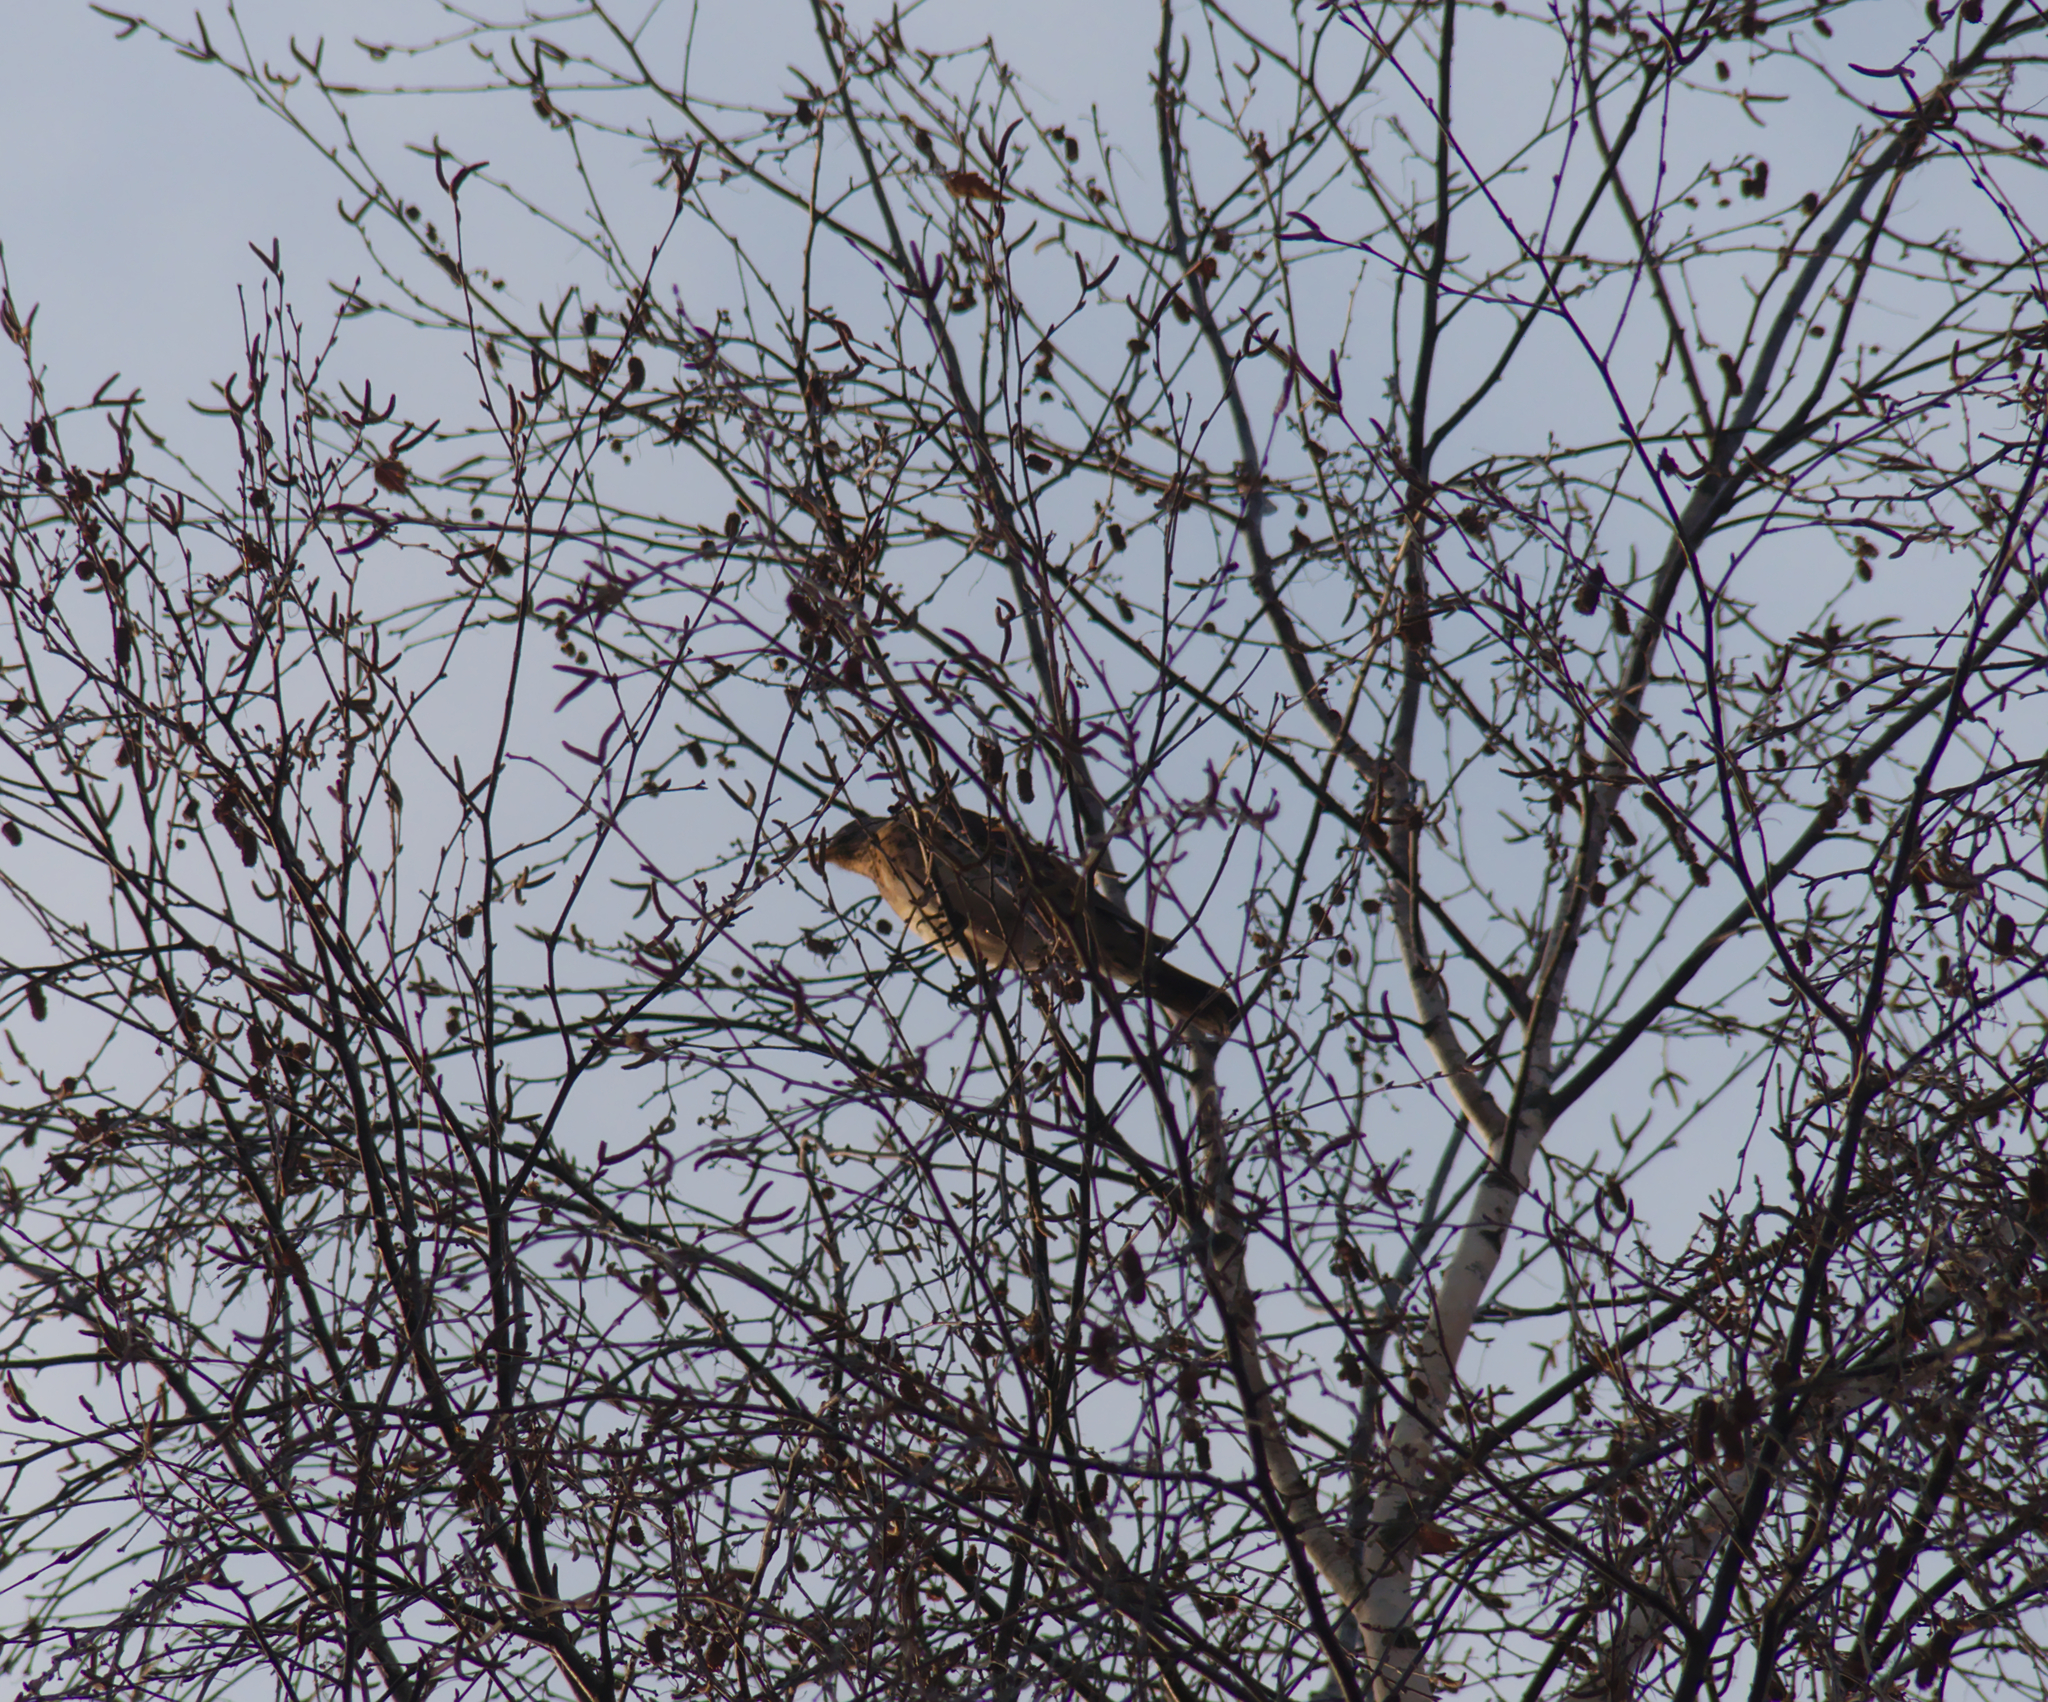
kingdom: Animalia
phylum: Chordata
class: Aves
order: Passeriformes
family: Turdidae
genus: Turdus
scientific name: Turdus pilaris
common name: Fieldfare
